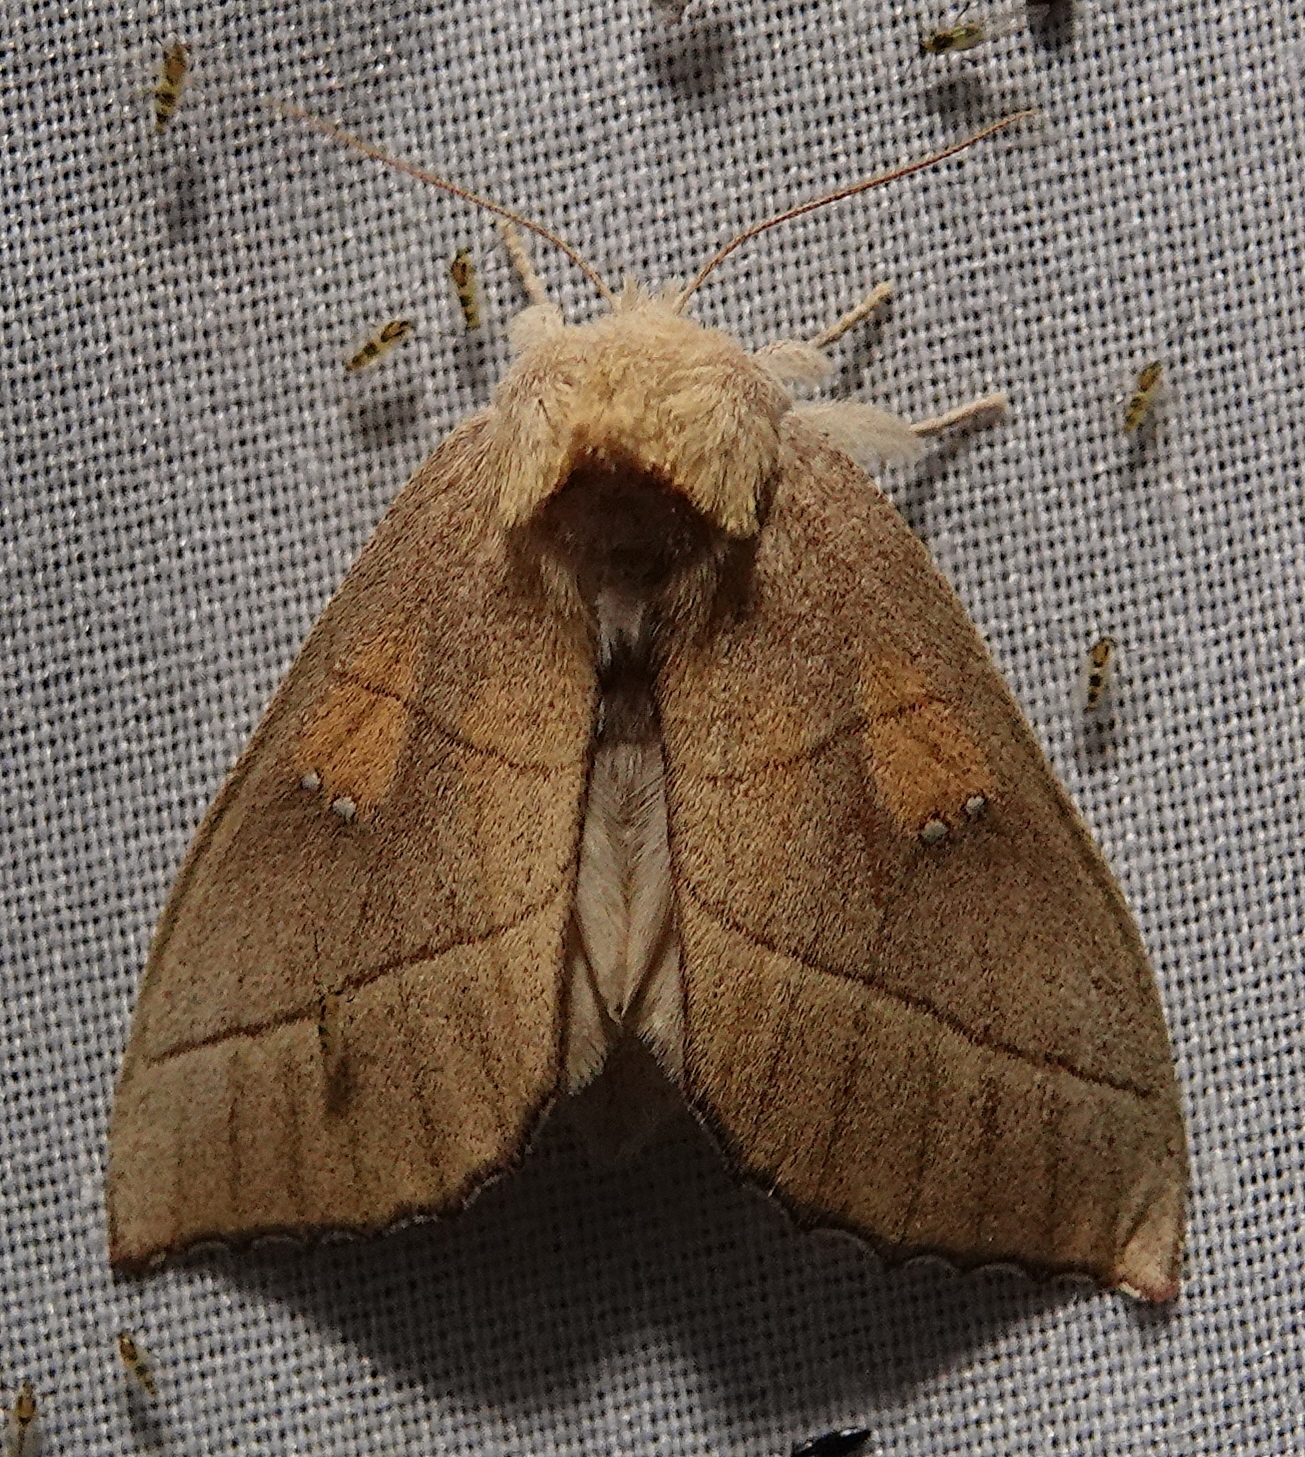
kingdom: Animalia
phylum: Arthropoda
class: Insecta
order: Lepidoptera
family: Notodontidae
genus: Nadata
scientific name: Nadata gibbosa
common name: White-dotted prominent
